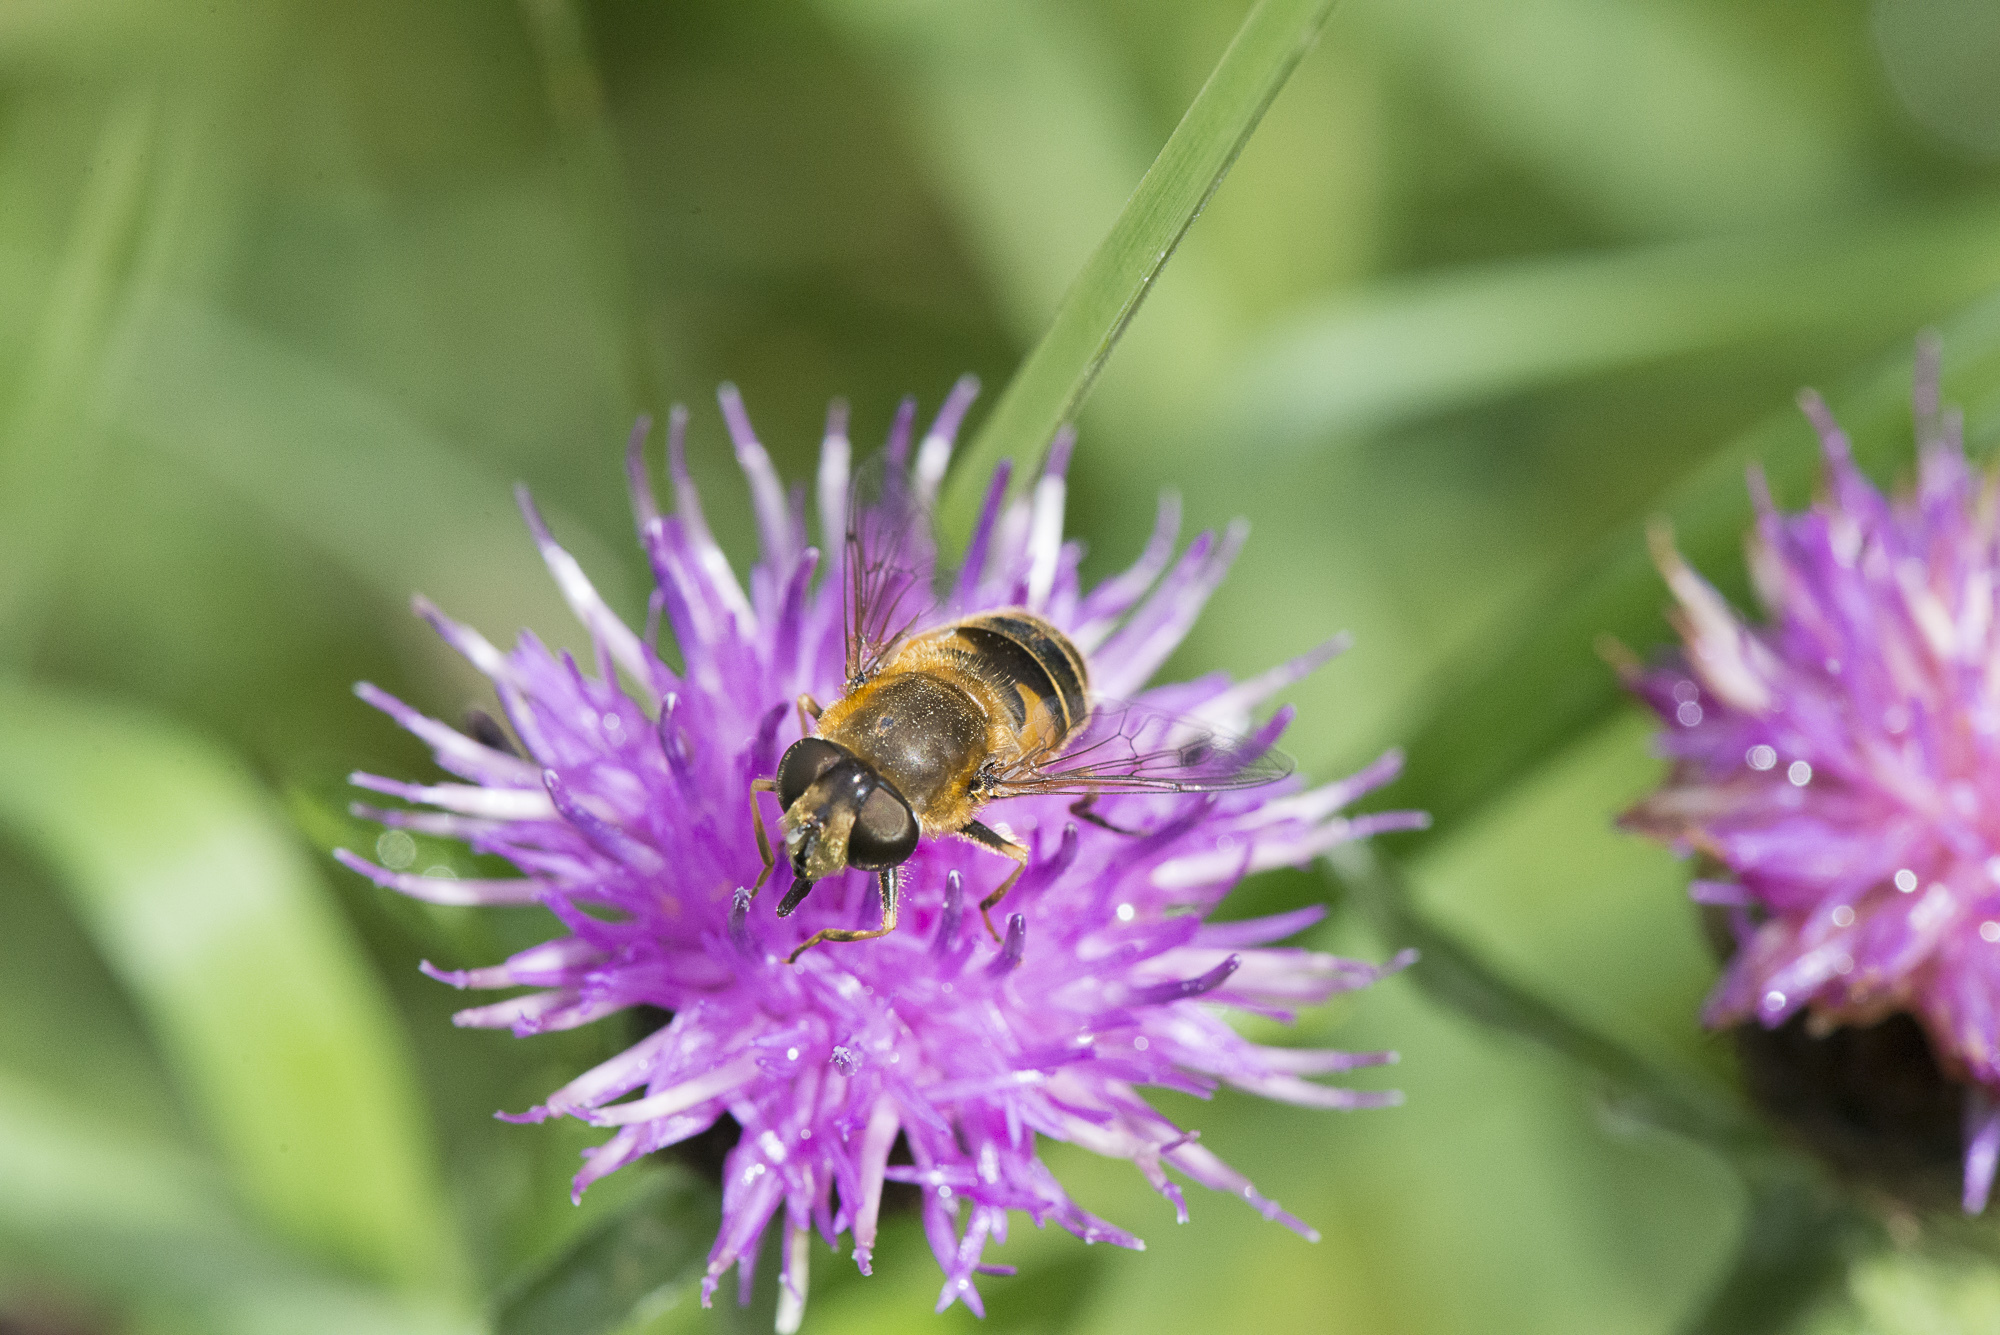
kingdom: Animalia
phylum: Arthropoda
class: Insecta
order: Diptera
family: Syrphidae
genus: Eristalis
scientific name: Eristalis nemorum
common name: Orange-spined drone fly
